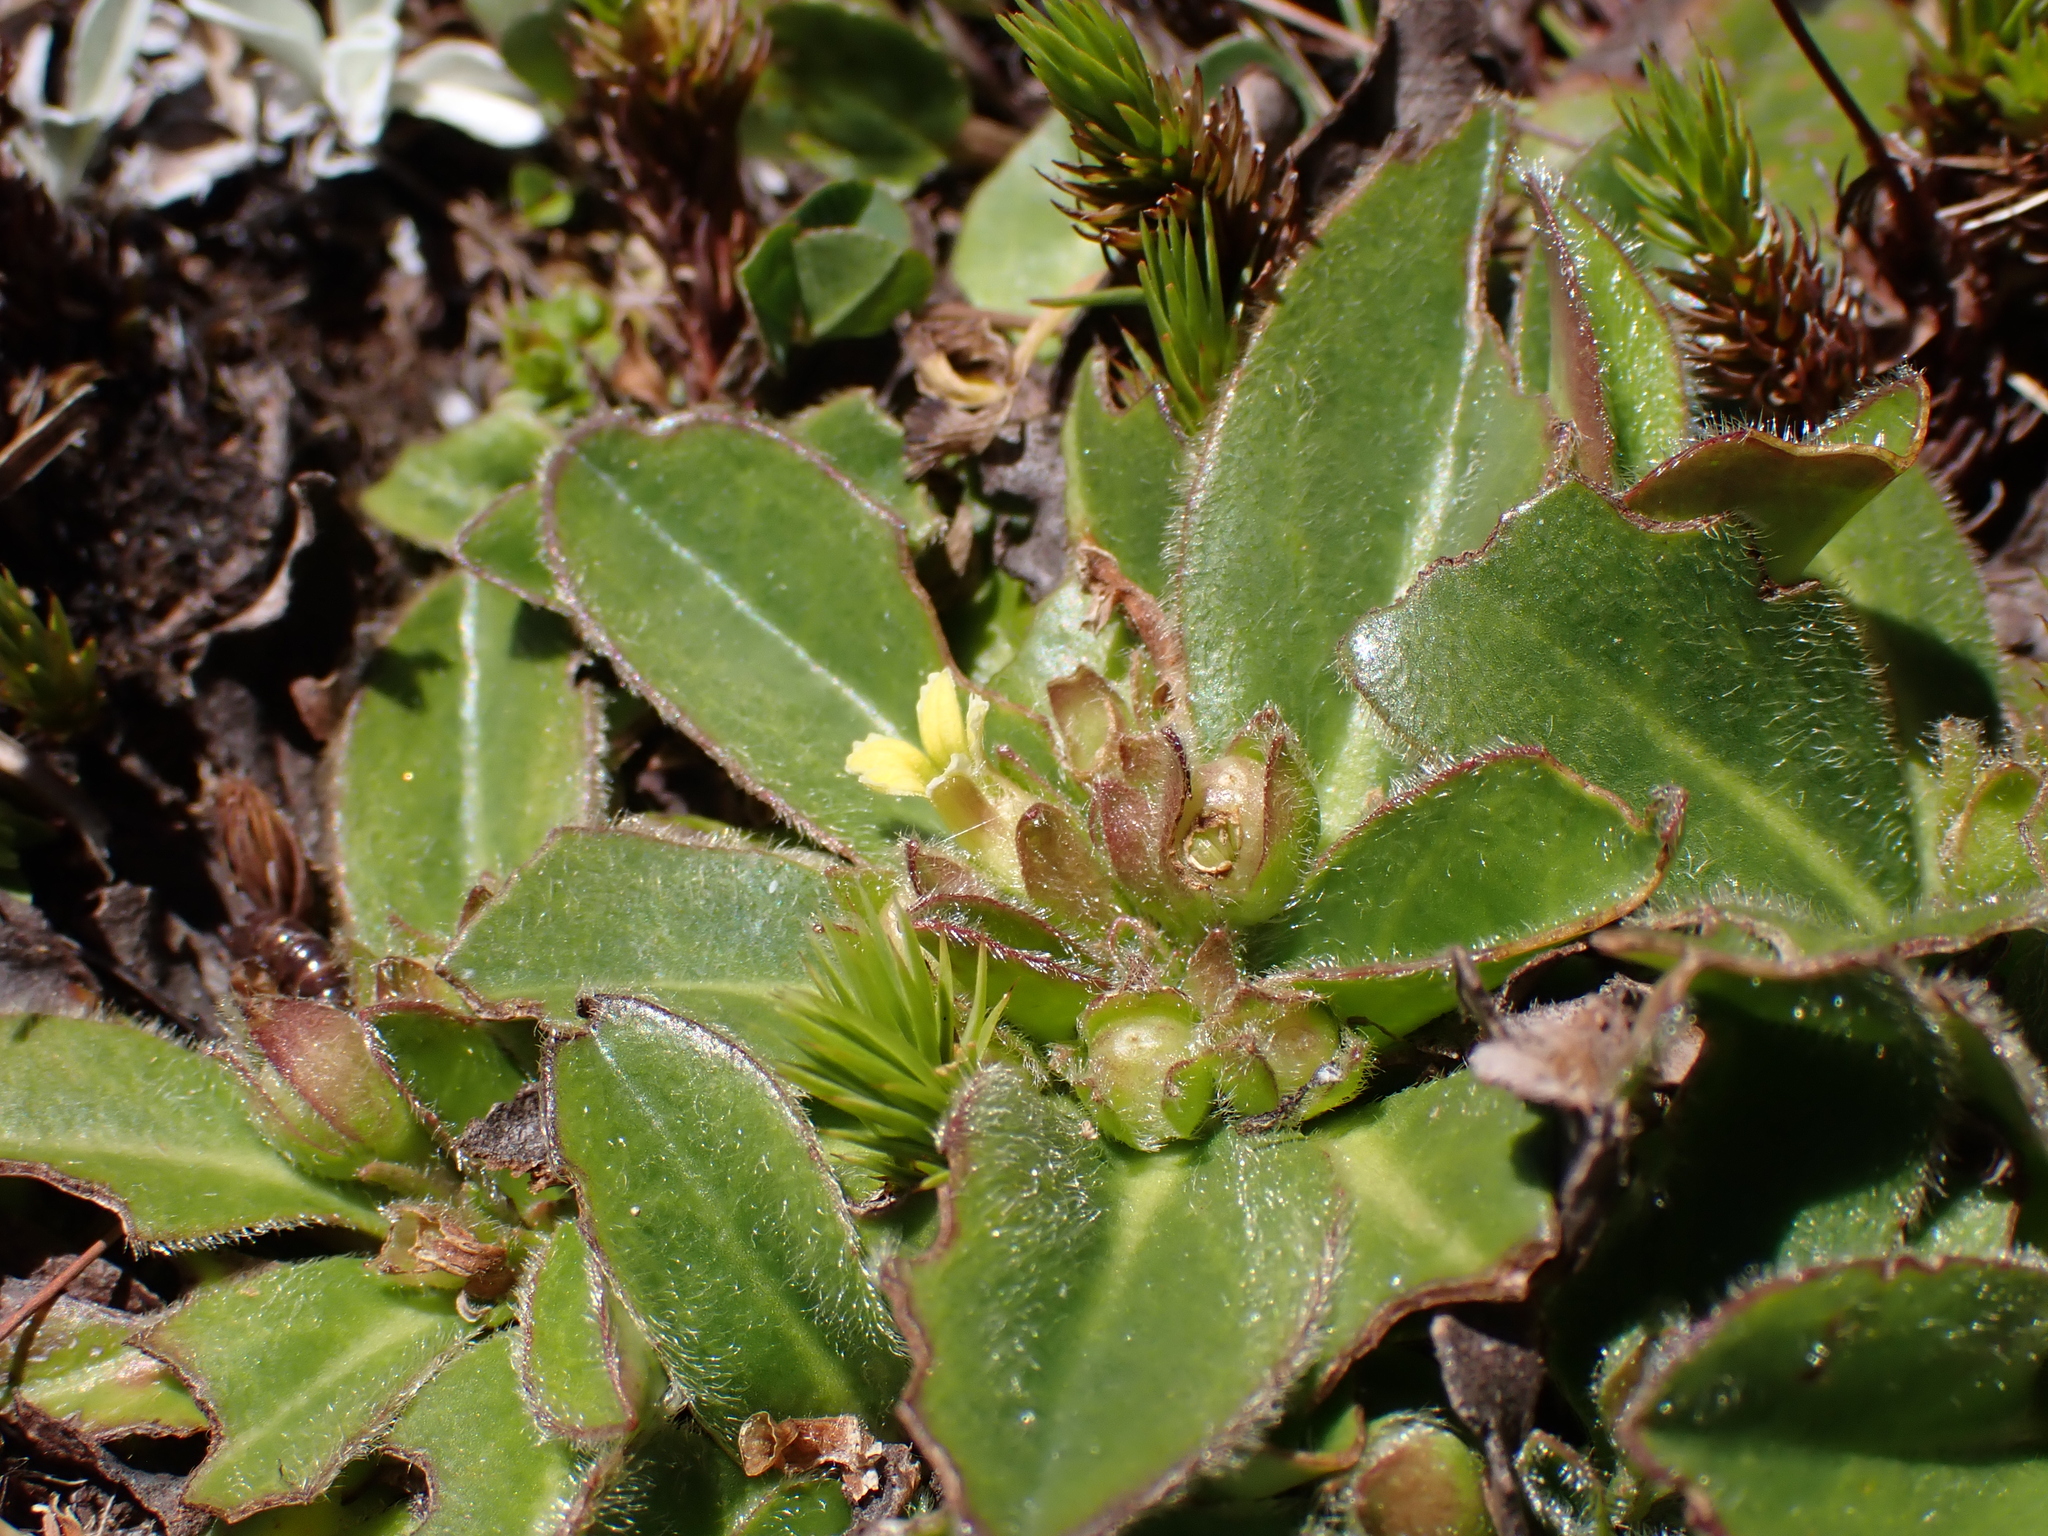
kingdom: Plantae
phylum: Tracheophyta
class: Magnoliopsida
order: Asterales
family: Goodeniaceae
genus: Goodenia
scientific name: Goodenia montana
